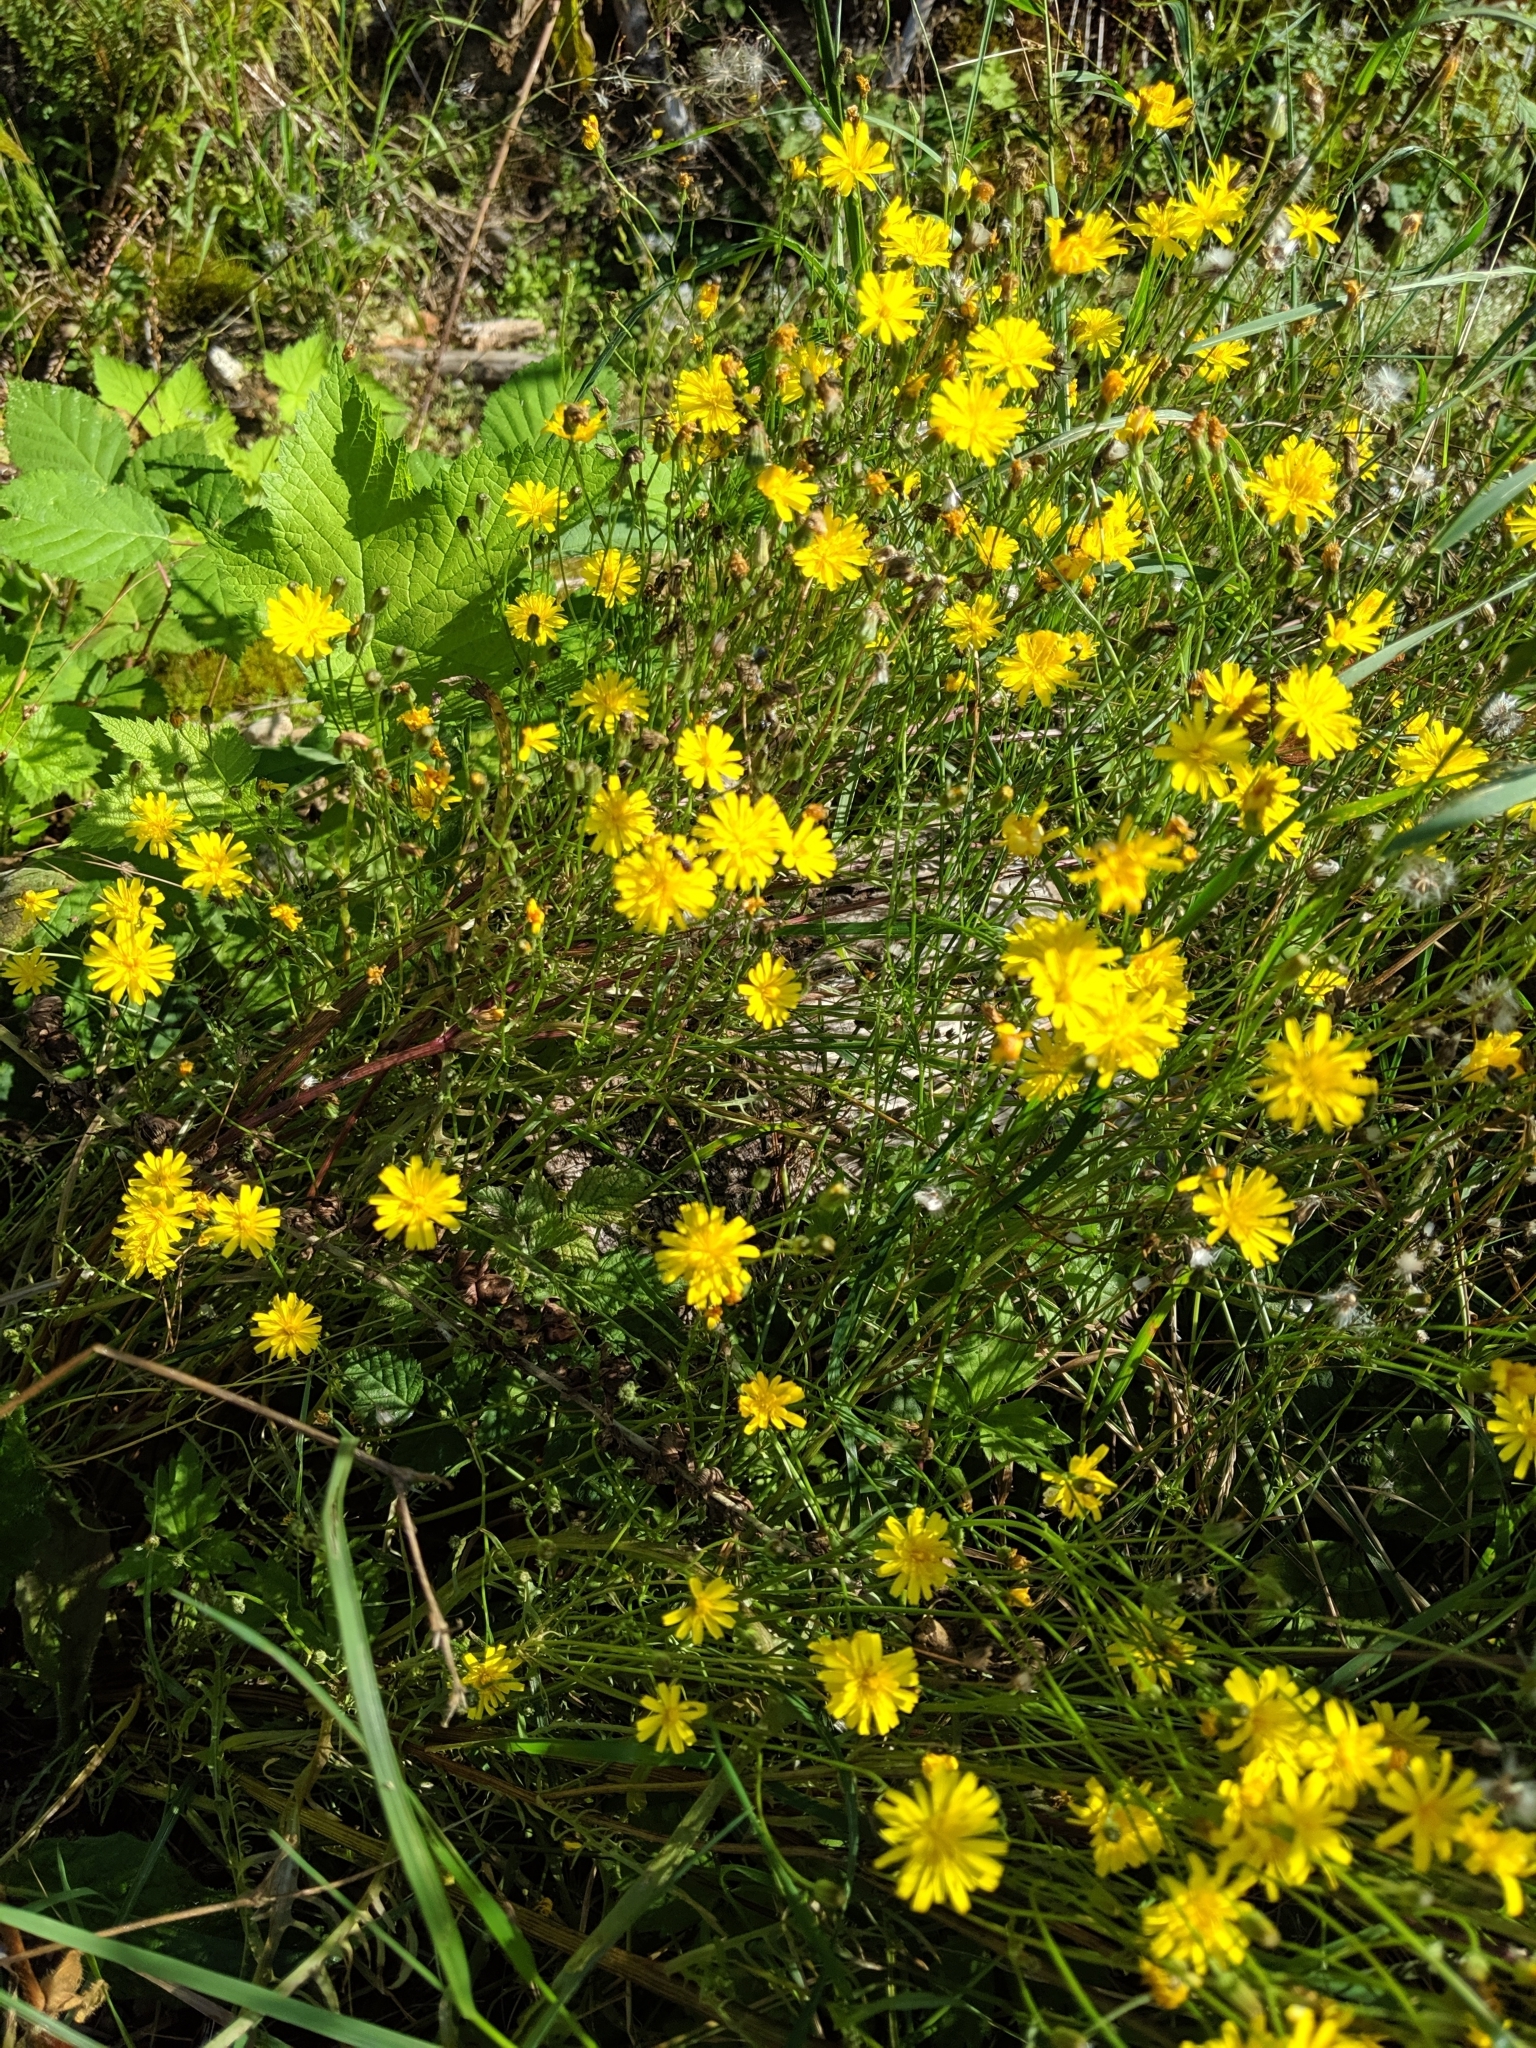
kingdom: Plantae
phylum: Tracheophyta
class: Magnoliopsida
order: Asterales
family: Asteraceae
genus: Crepis
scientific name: Crepis capillaris
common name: Smooth hawksbeard
